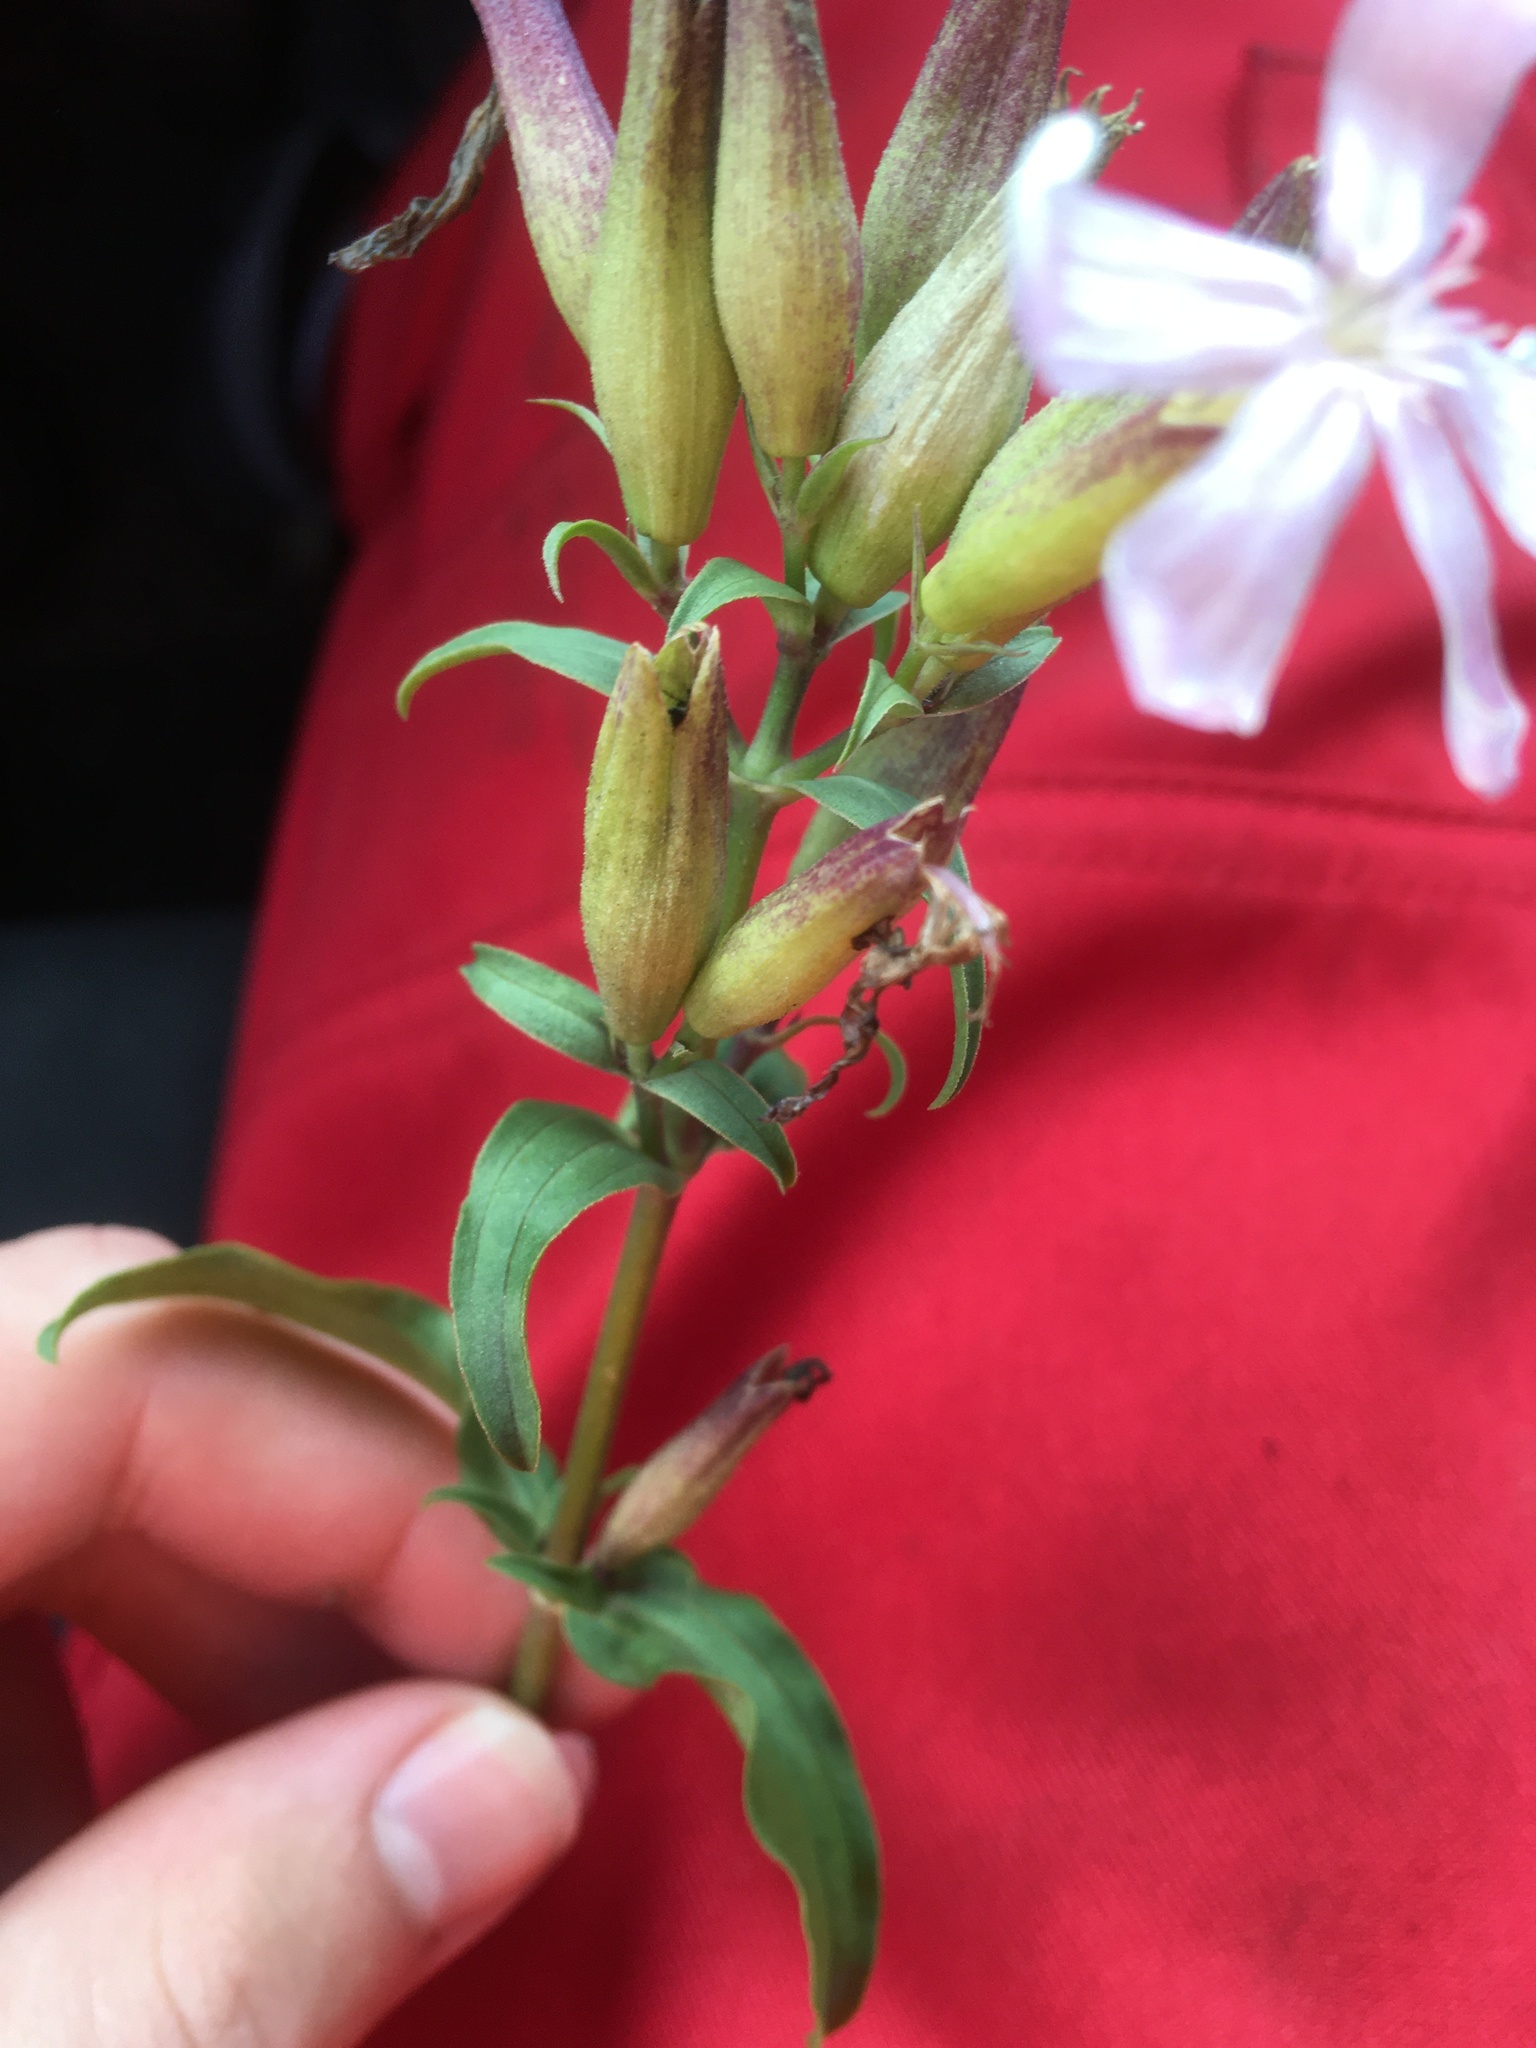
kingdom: Plantae
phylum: Tracheophyta
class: Magnoliopsida
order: Caryophyllales
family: Caryophyllaceae
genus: Saponaria
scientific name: Saponaria officinalis
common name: Soapwort
